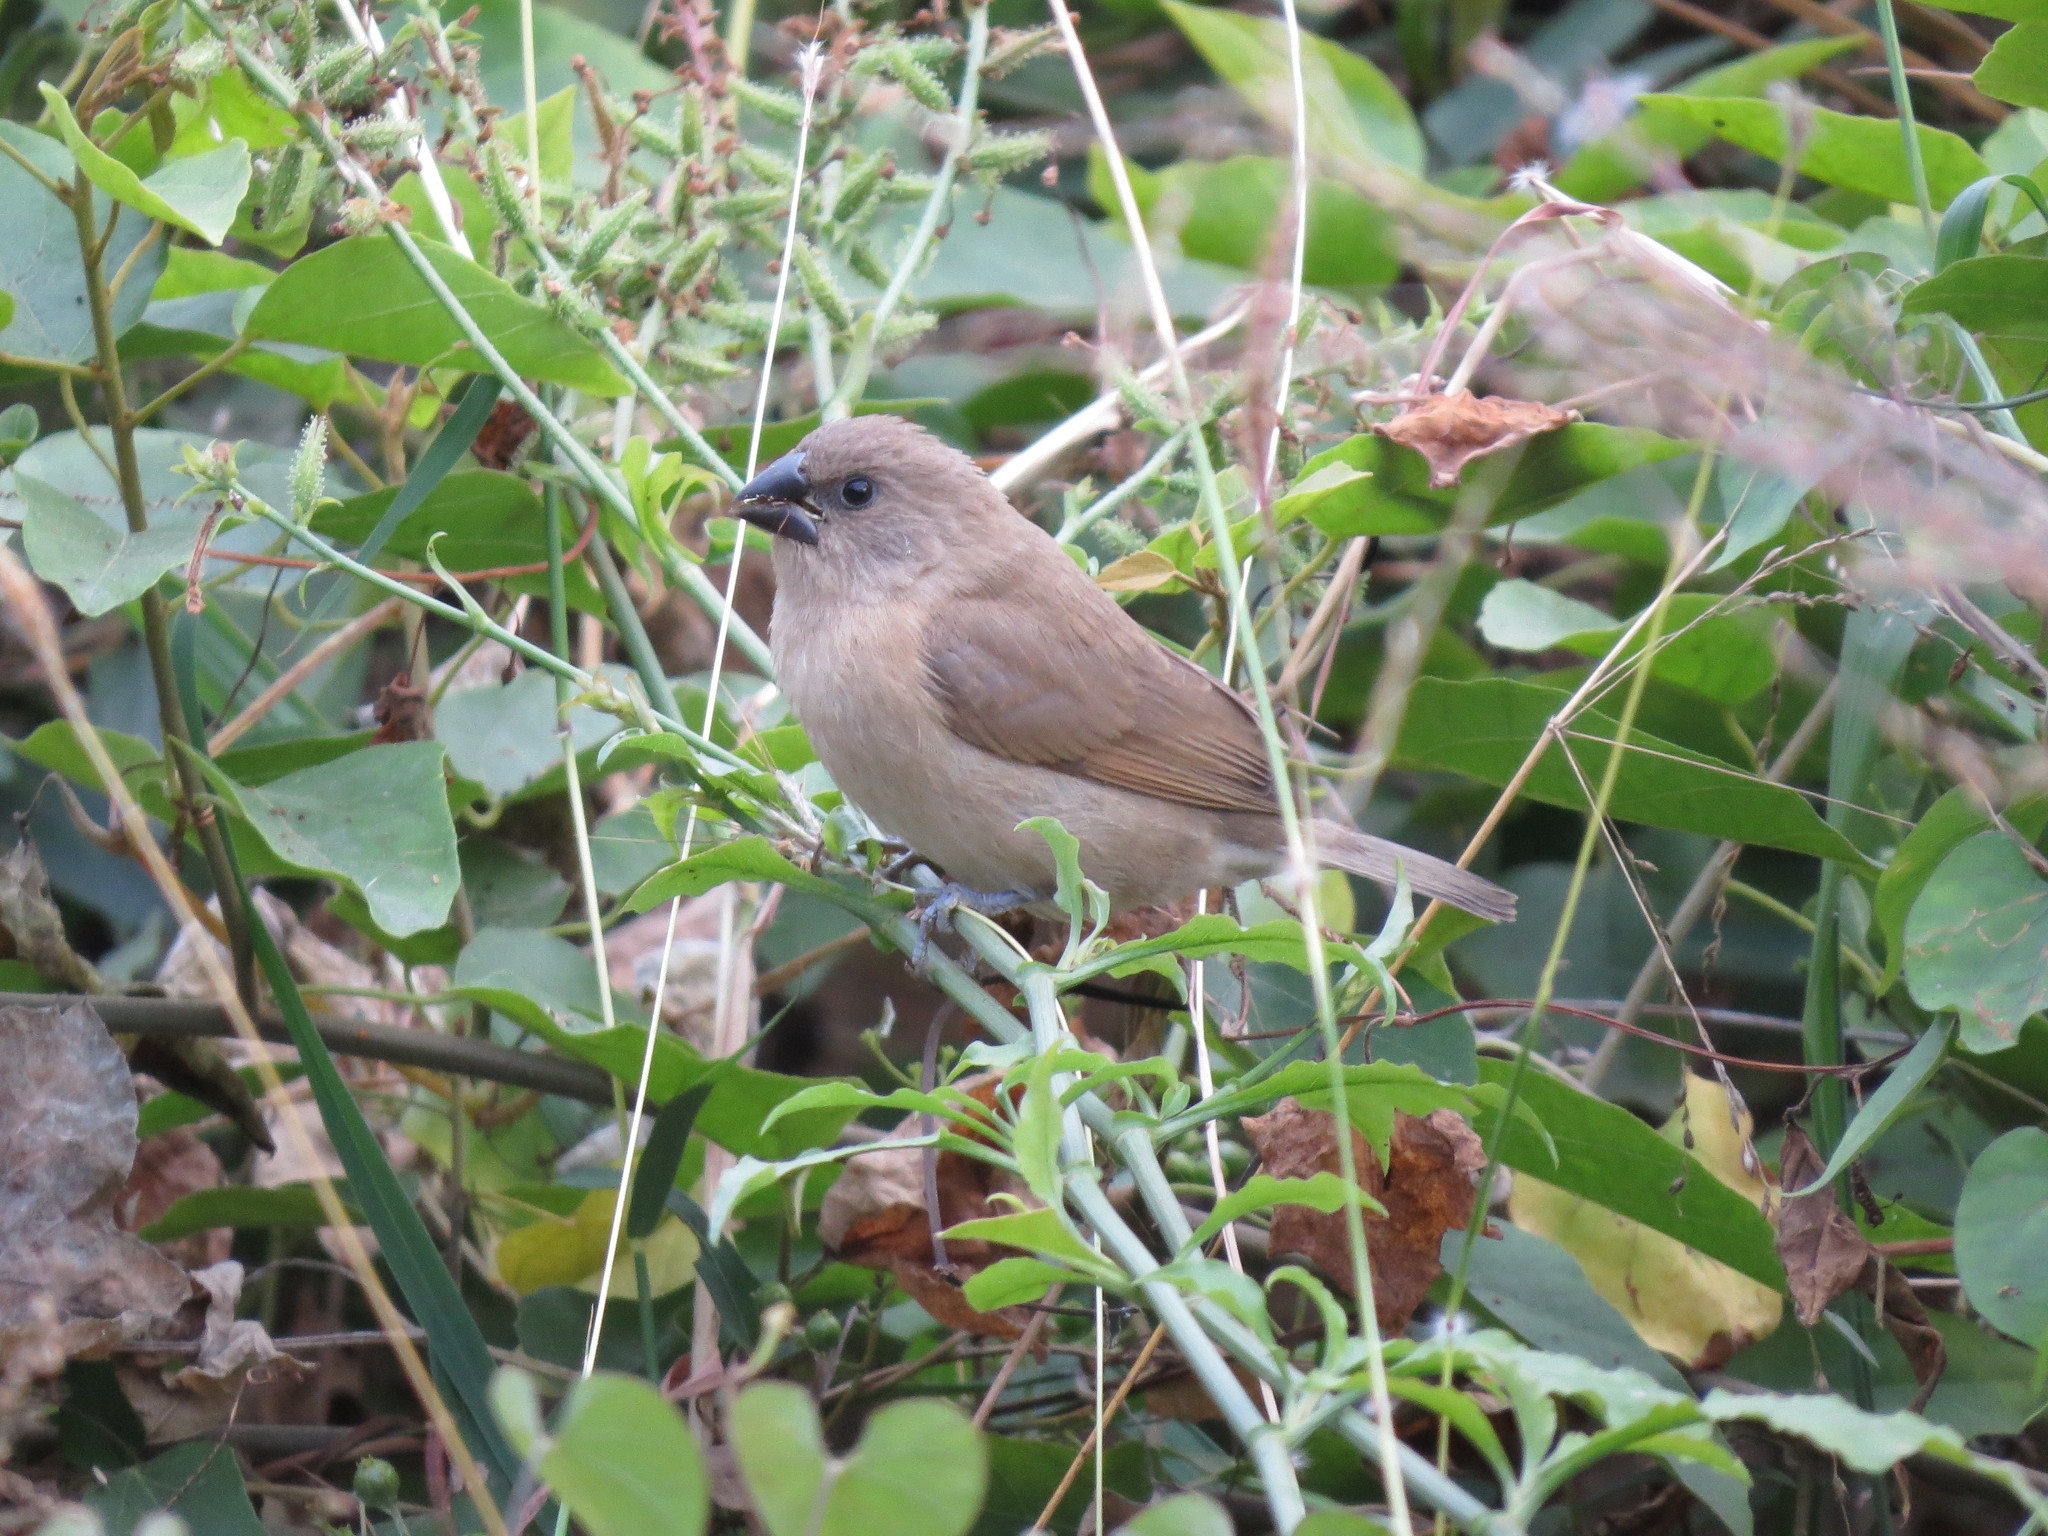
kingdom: Animalia
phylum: Chordata
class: Aves
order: Passeriformes
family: Estrildidae
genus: Lonchura
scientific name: Lonchura punctulata
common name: Scaly-breasted munia
